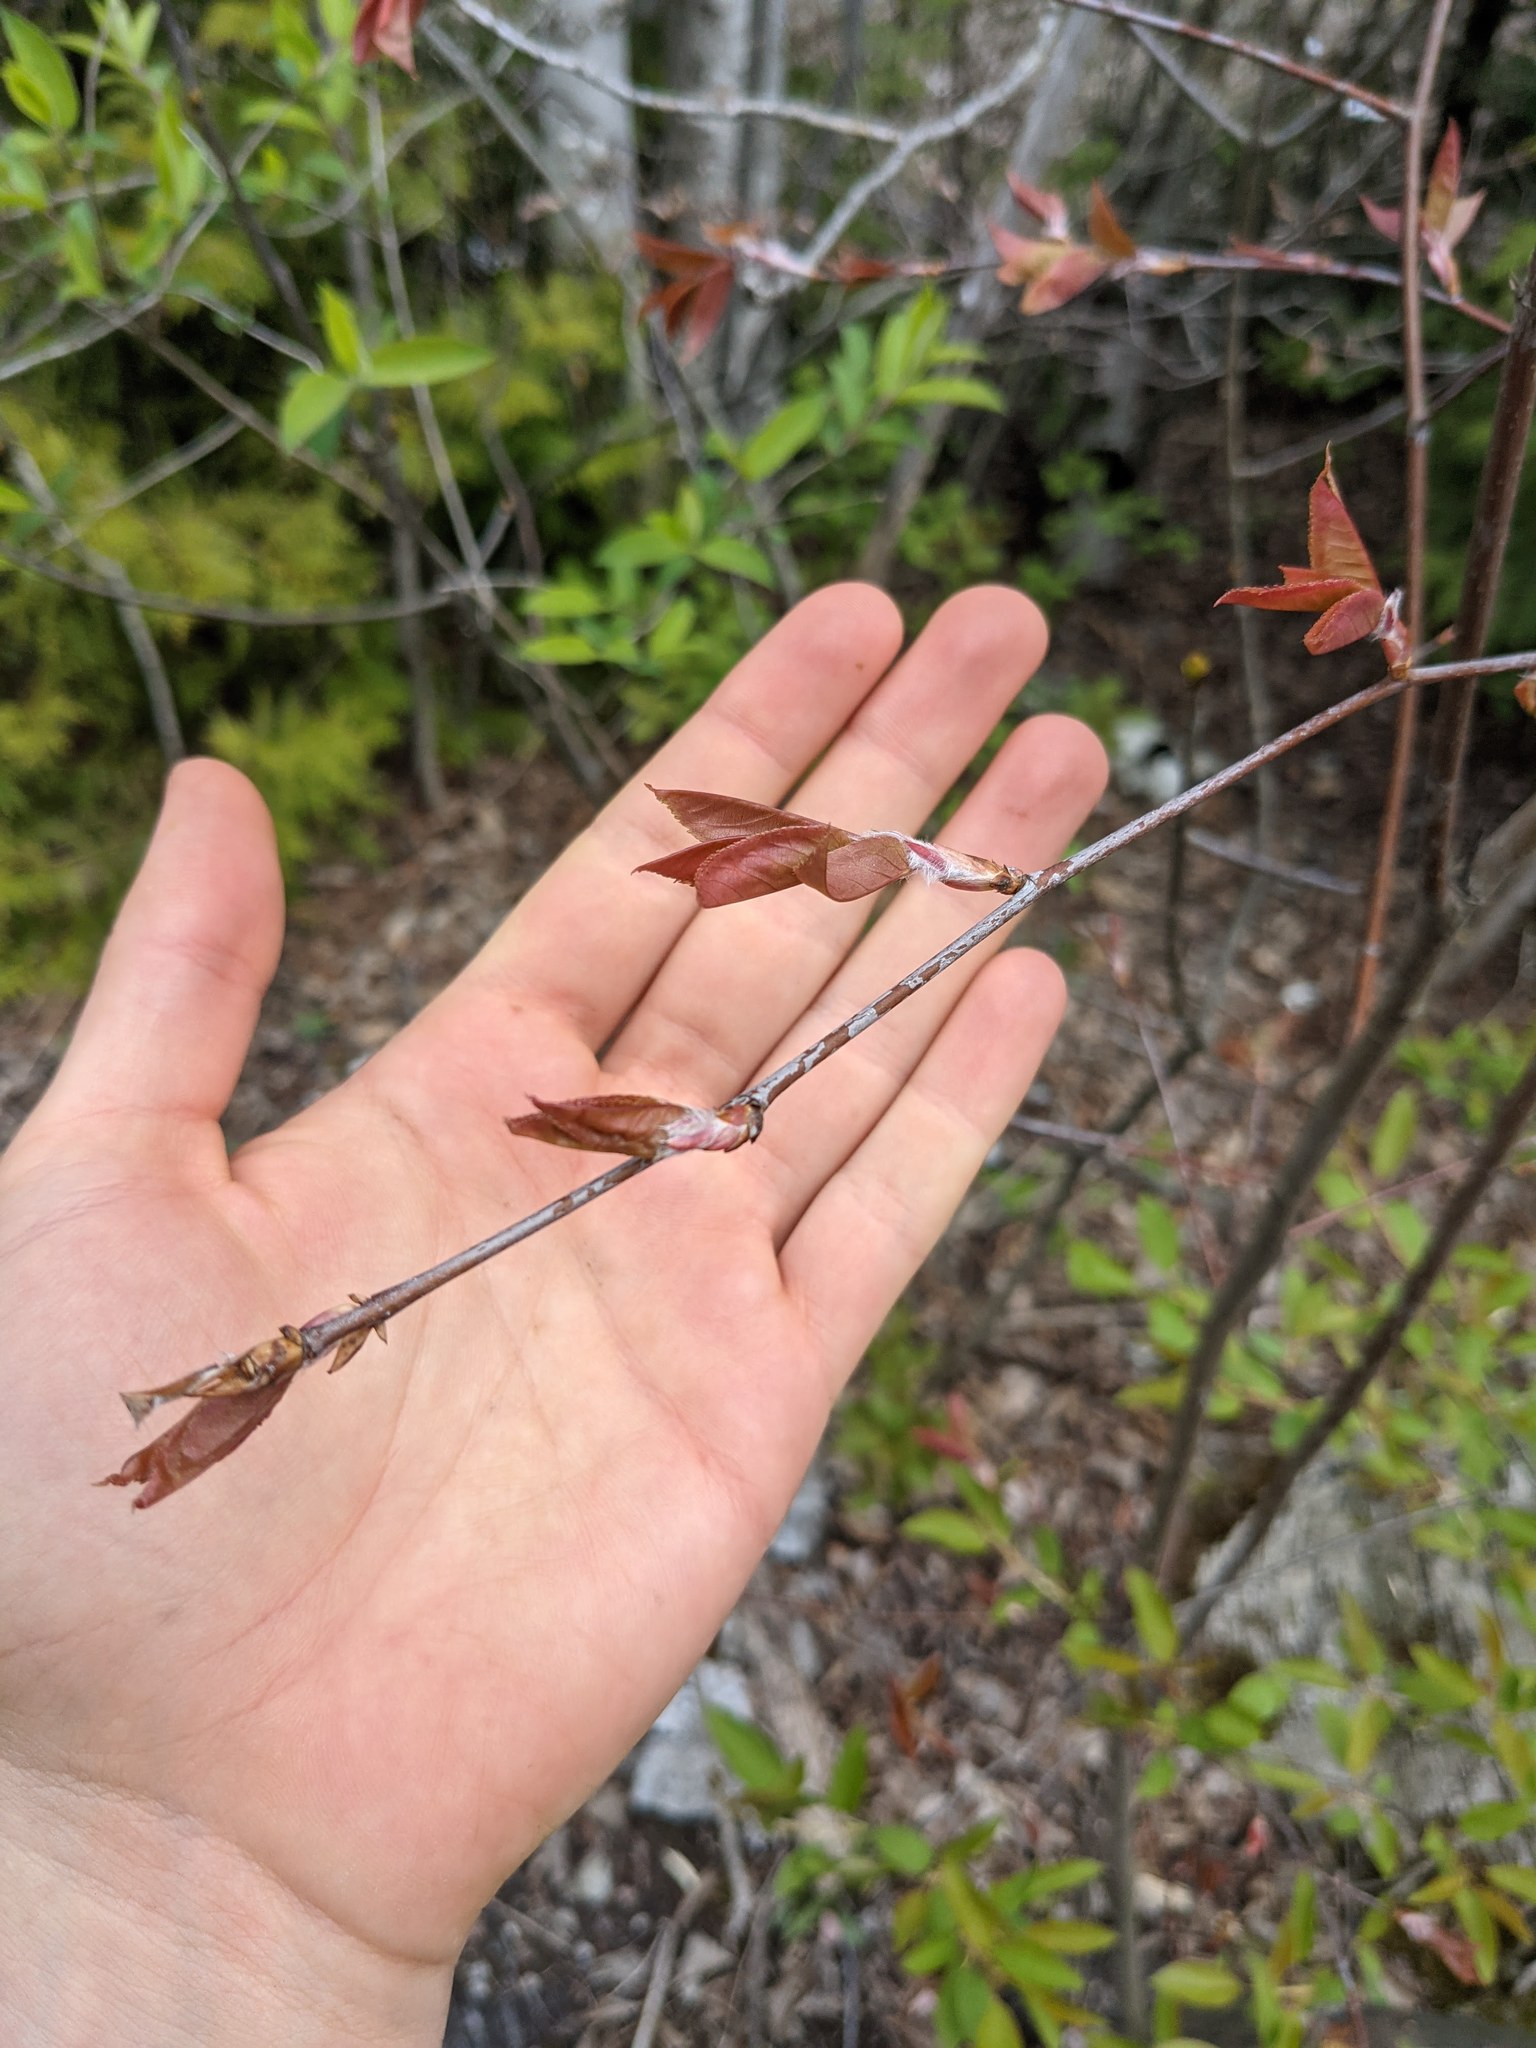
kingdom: Plantae
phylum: Tracheophyta
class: Magnoliopsida
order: Rosales
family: Rosaceae
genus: Amelanchier
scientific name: Amelanchier laevis
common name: Allegheny serviceberry
